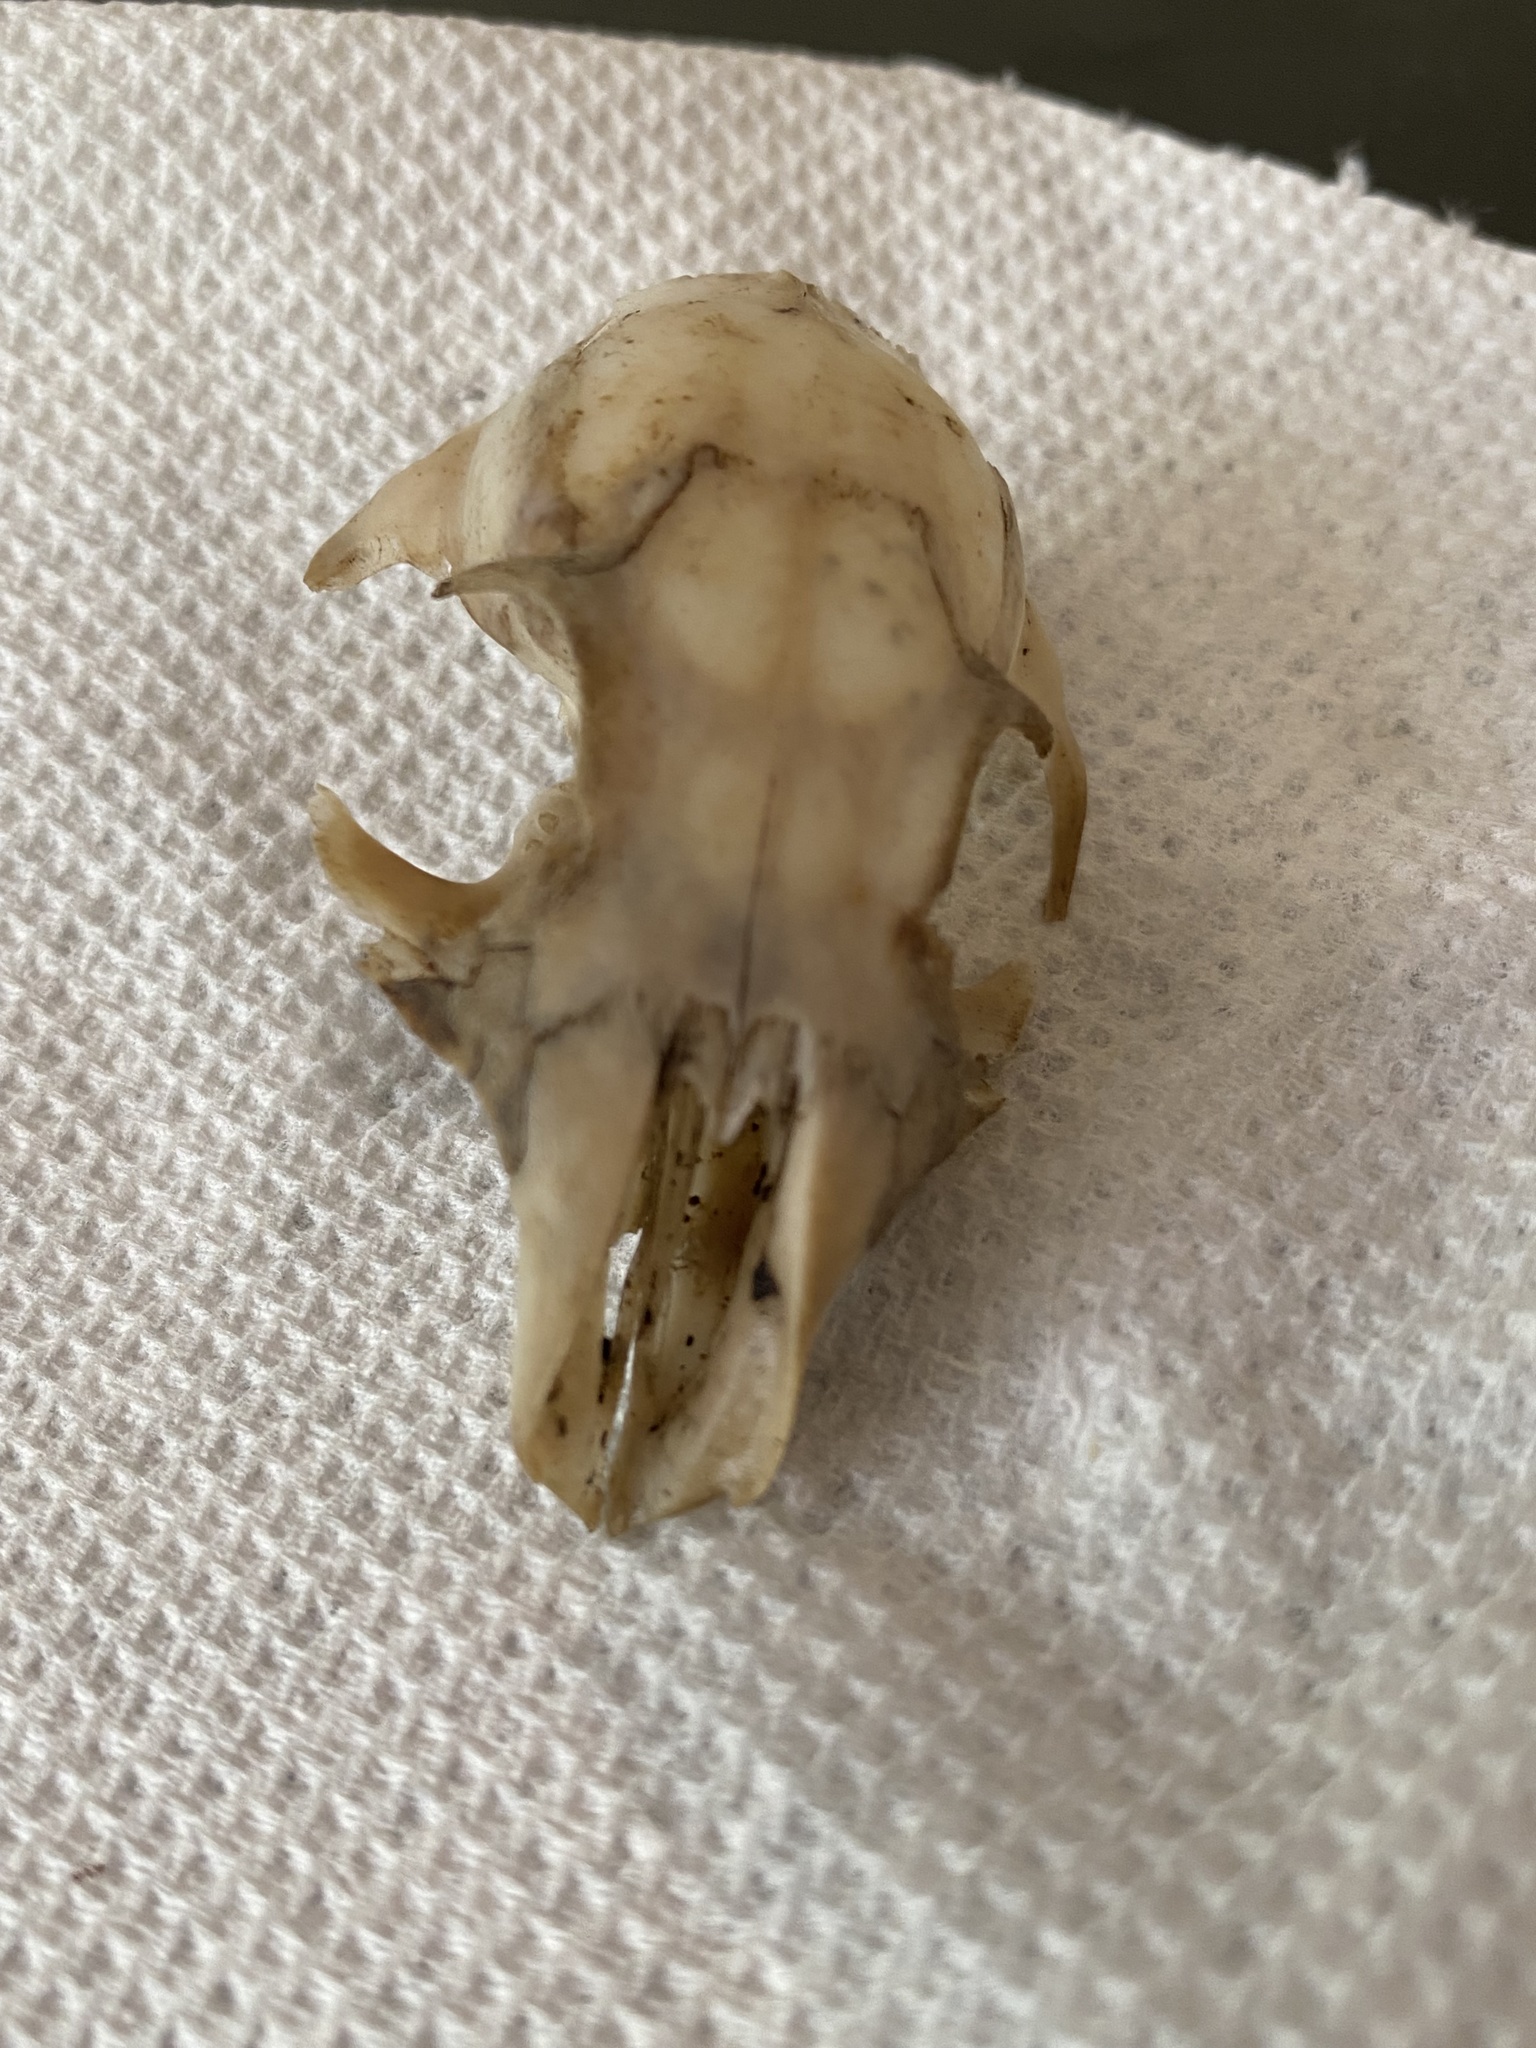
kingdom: Animalia
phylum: Chordata
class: Mammalia
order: Rodentia
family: Sciuridae
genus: Otospermophilus
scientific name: Otospermophilus beecheyi
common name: California ground squirrel
